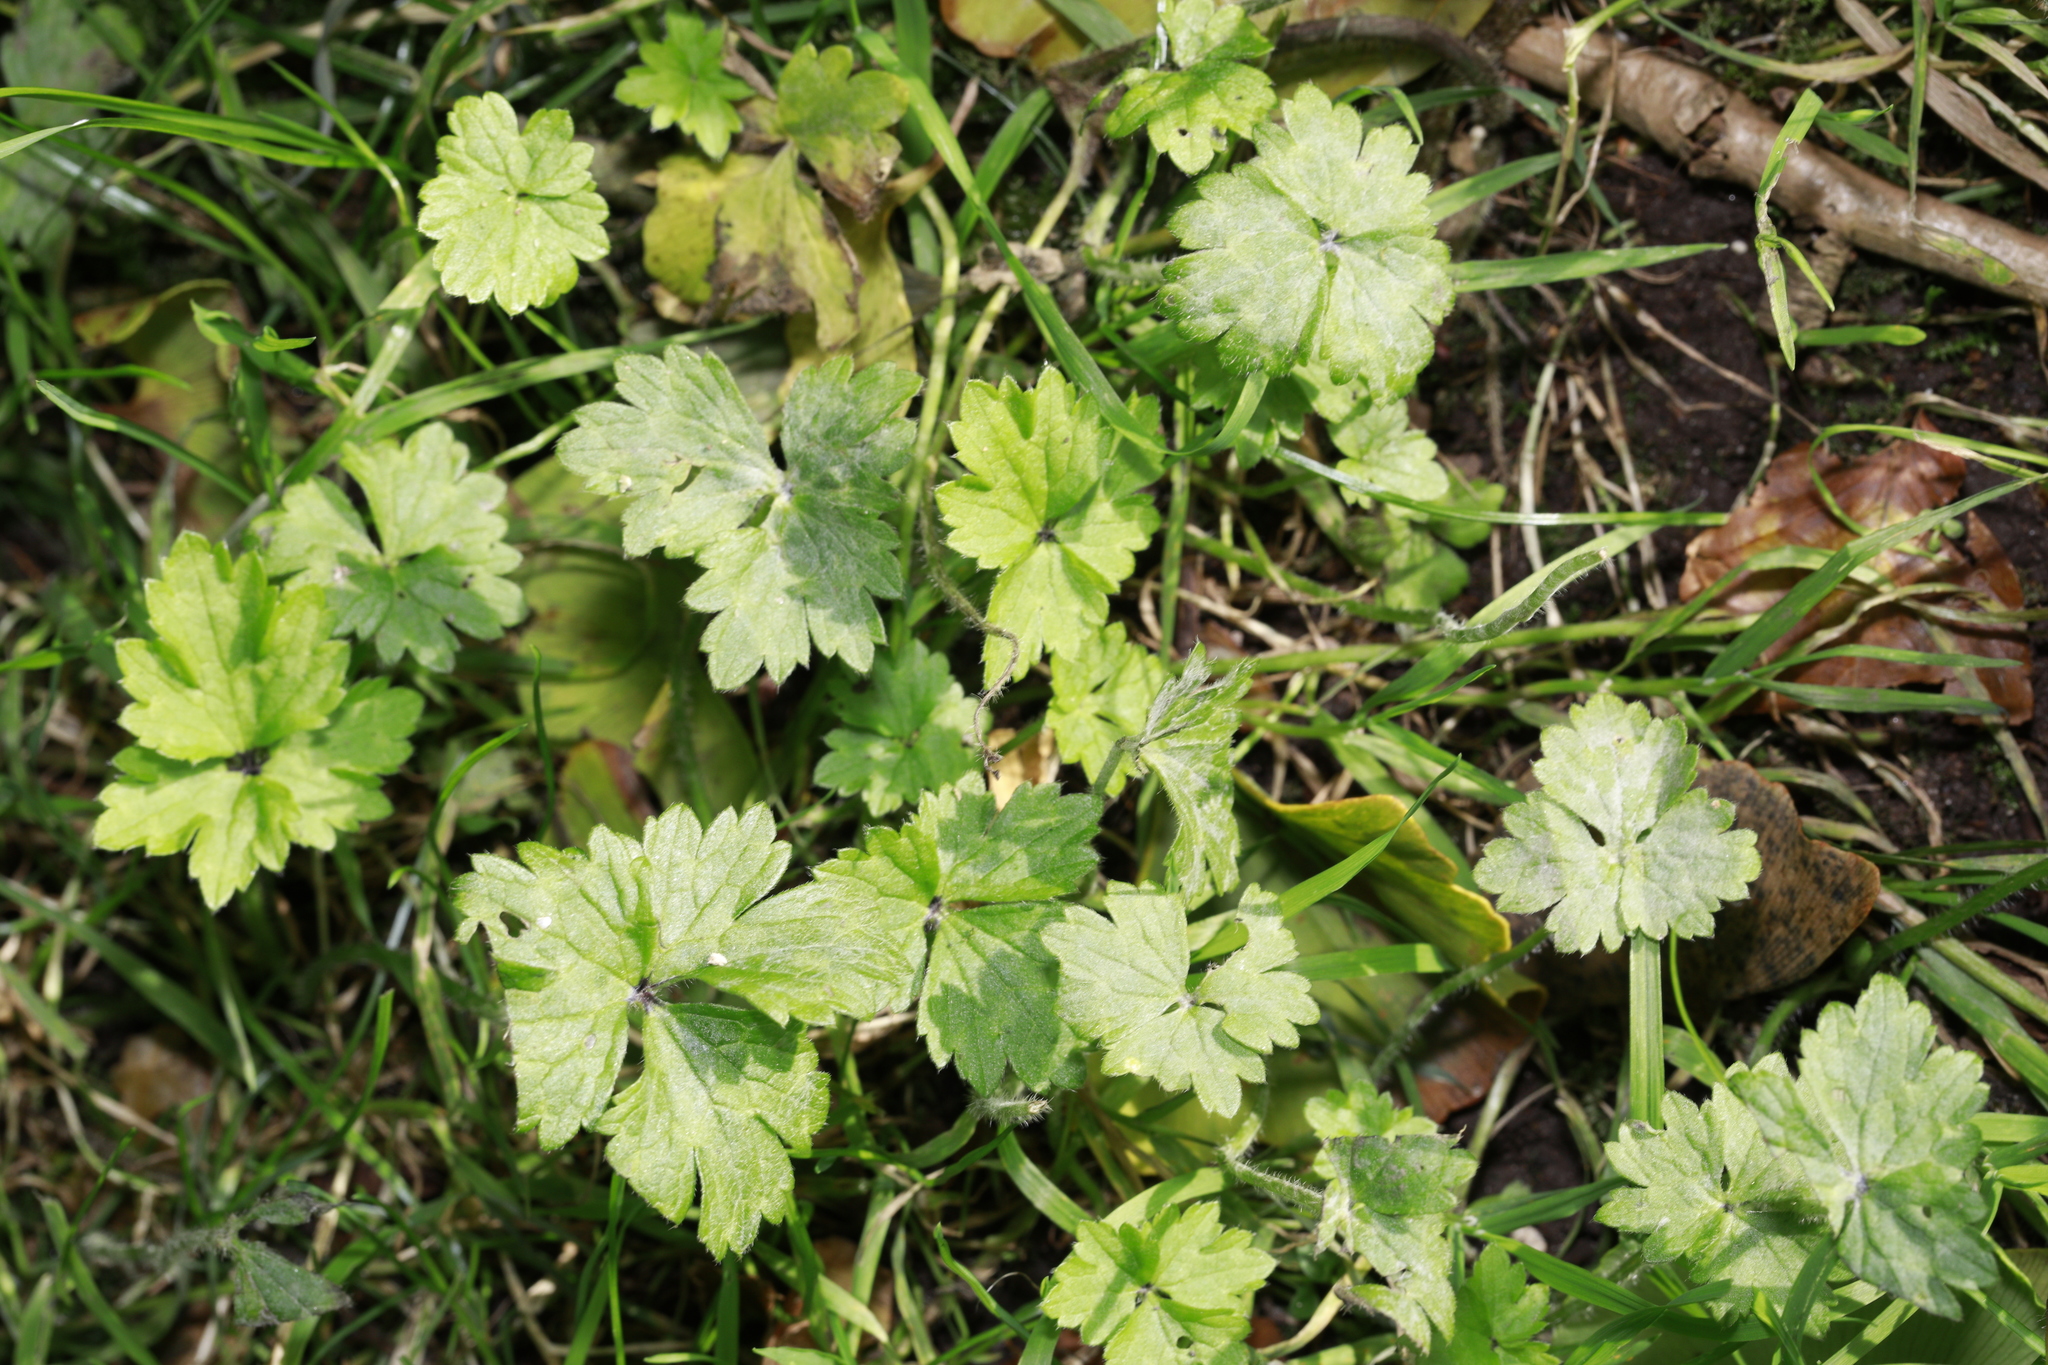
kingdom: Plantae
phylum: Tracheophyta
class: Magnoliopsida
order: Ranunculales
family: Ranunculaceae
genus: Ranunculus
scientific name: Ranunculus repens
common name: Creeping buttercup
